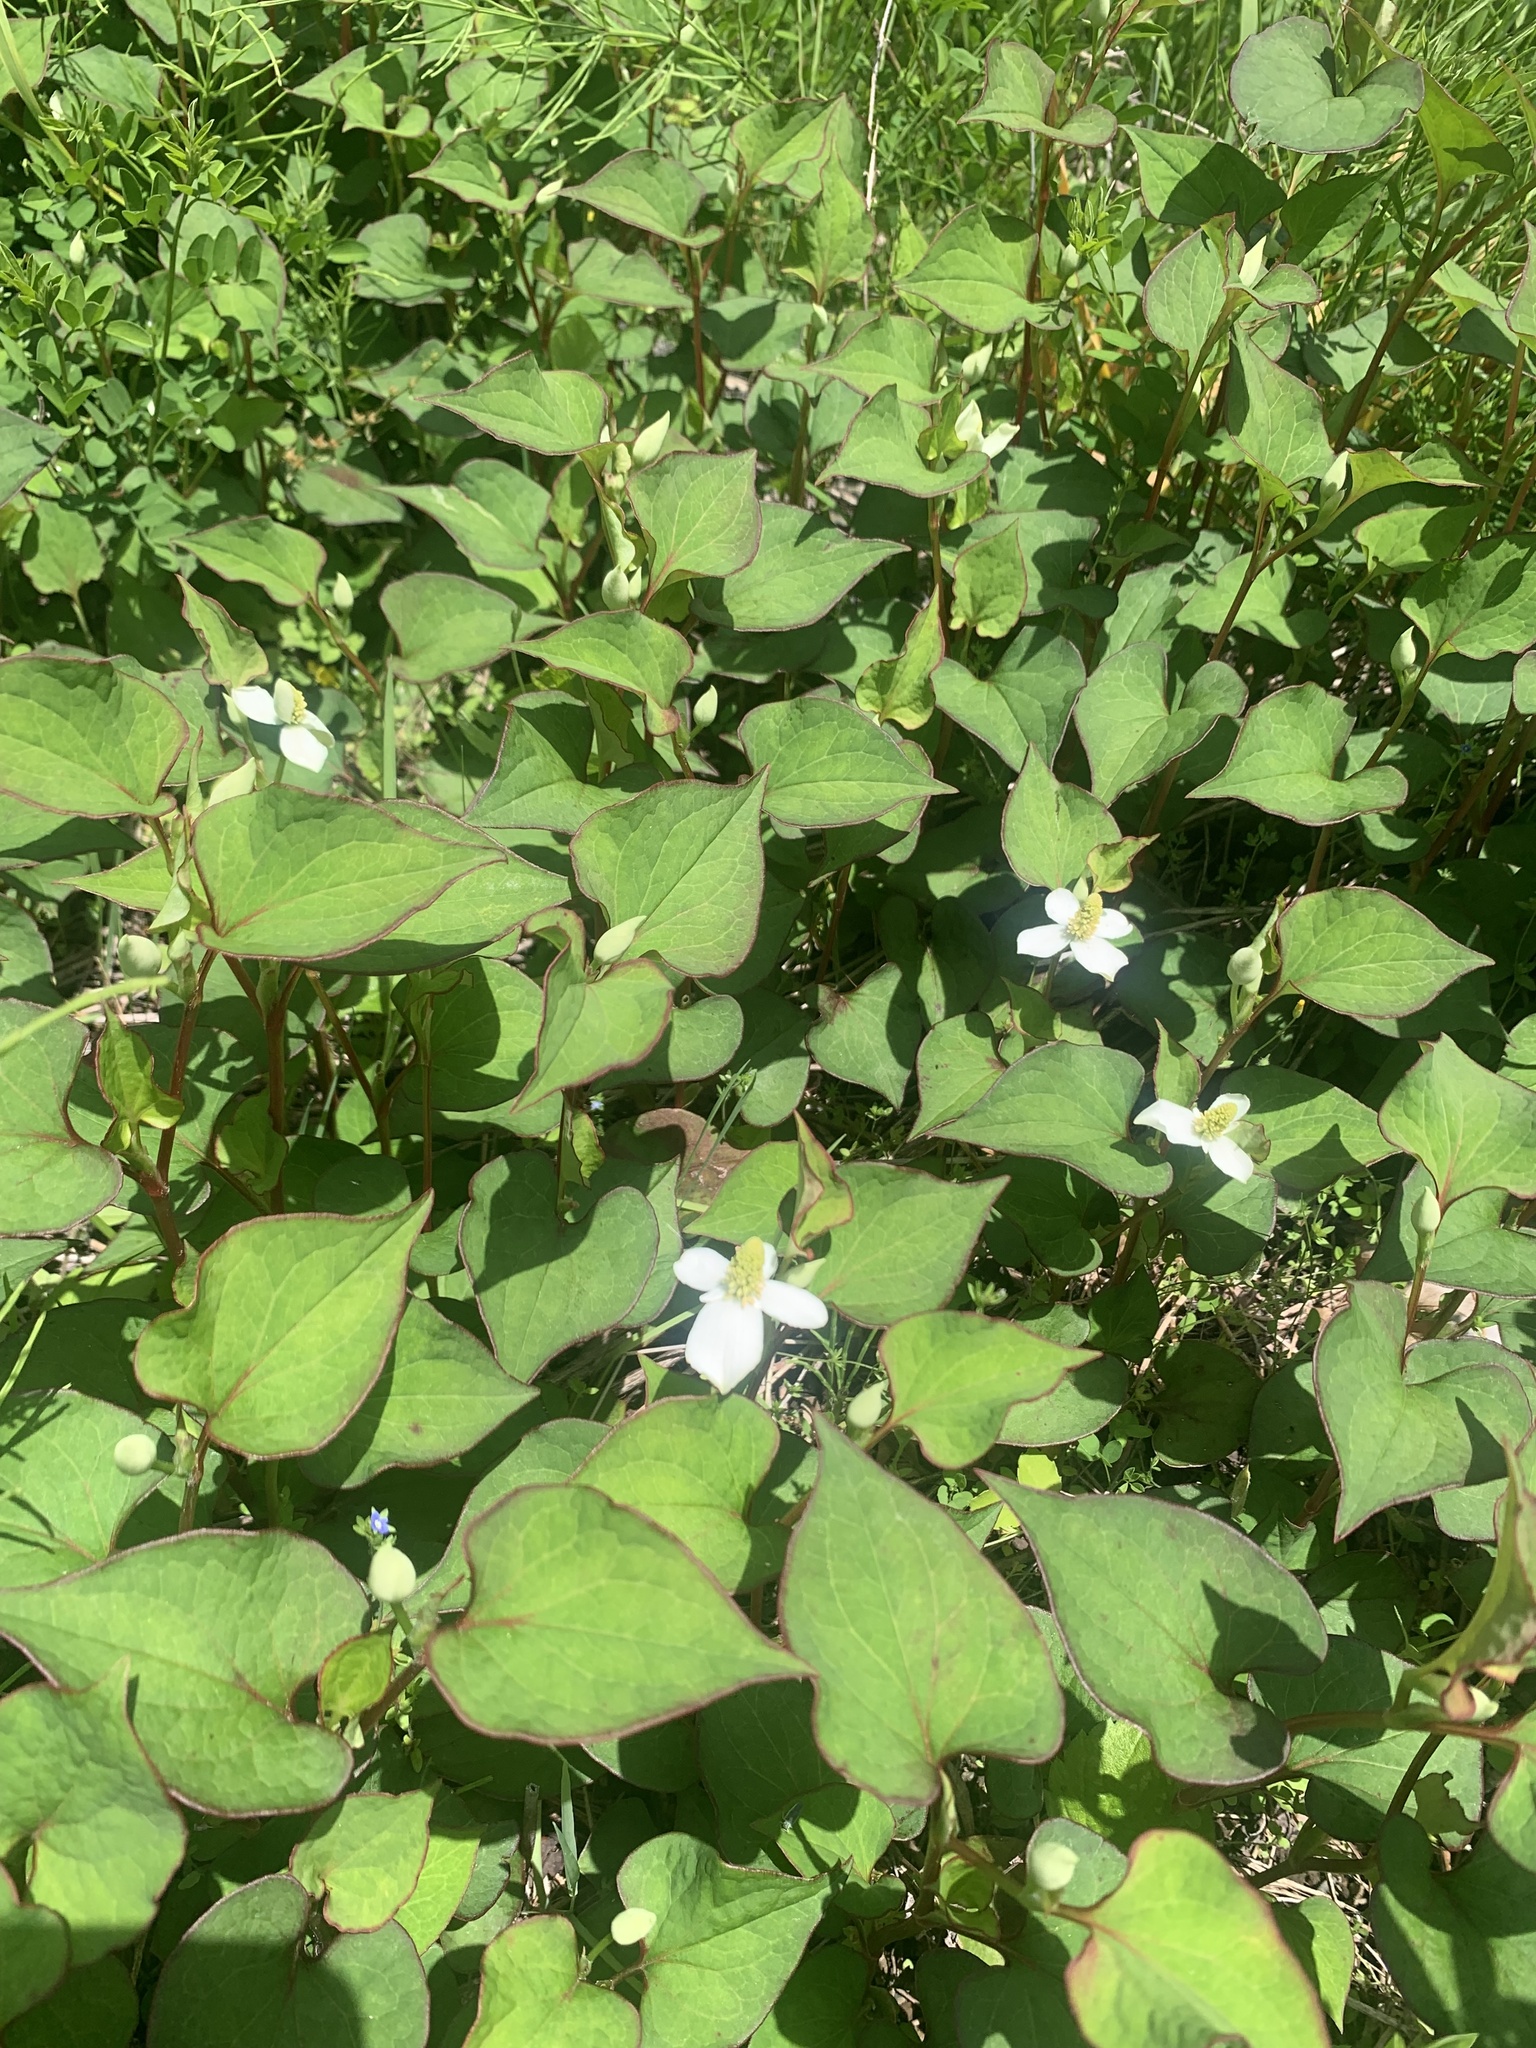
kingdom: Plantae
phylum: Tracheophyta
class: Magnoliopsida
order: Piperales
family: Saururaceae
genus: Houttuynia
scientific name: Houttuynia cordata
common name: Chameleon
